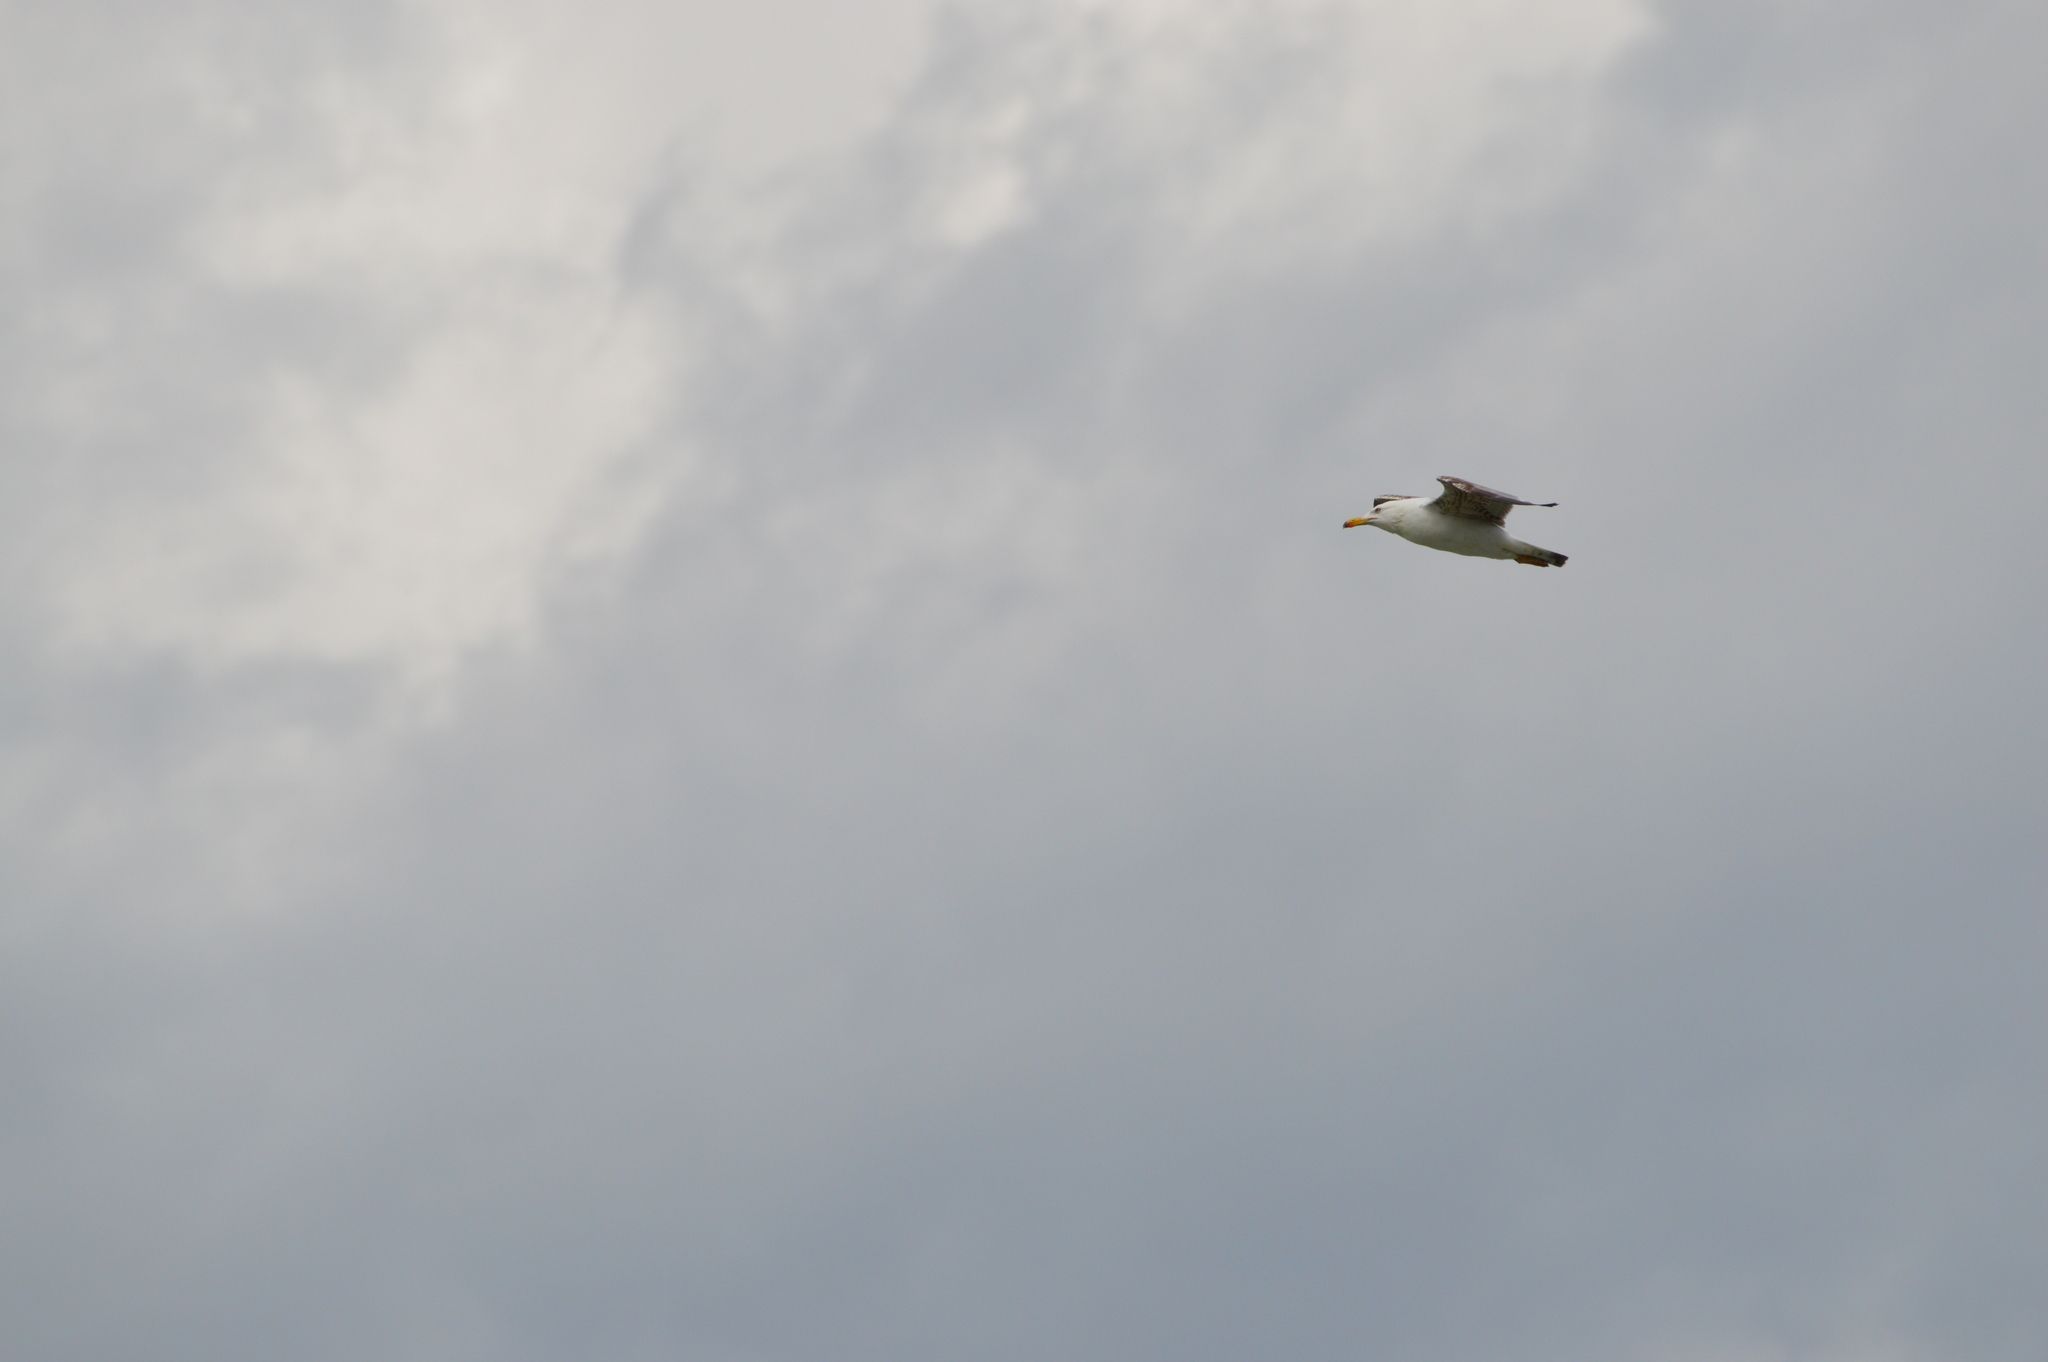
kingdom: Animalia
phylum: Chordata
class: Aves
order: Charadriiformes
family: Laridae
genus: Larus
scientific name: Larus michahellis
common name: Yellow-legged gull
